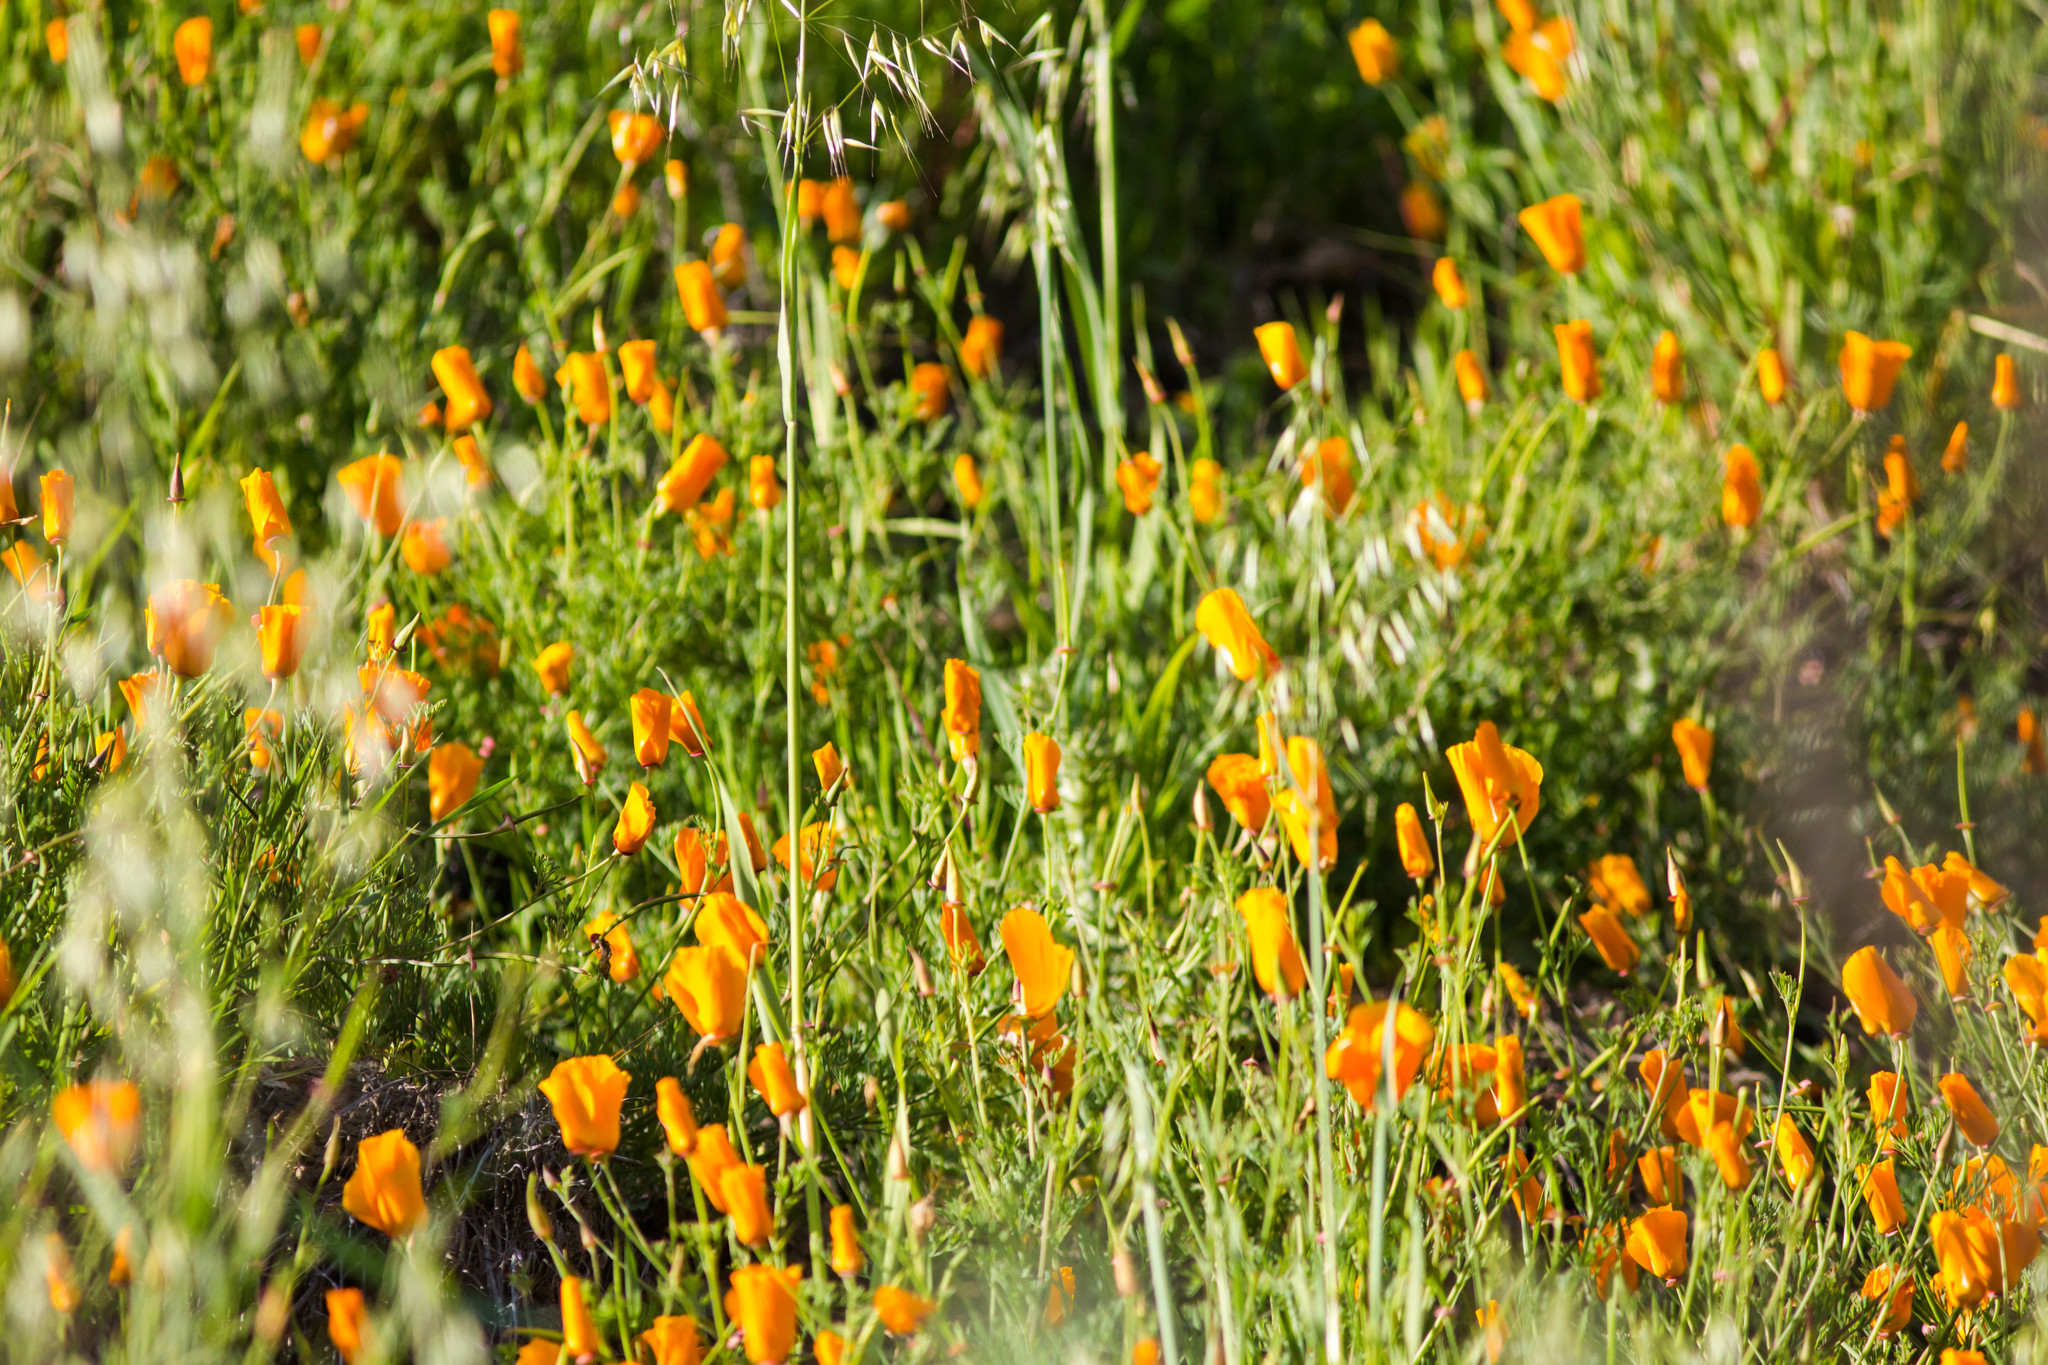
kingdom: Plantae
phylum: Tracheophyta
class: Magnoliopsida
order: Ranunculales
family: Papaveraceae
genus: Eschscholzia
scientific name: Eschscholzia californica
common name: California poppy
